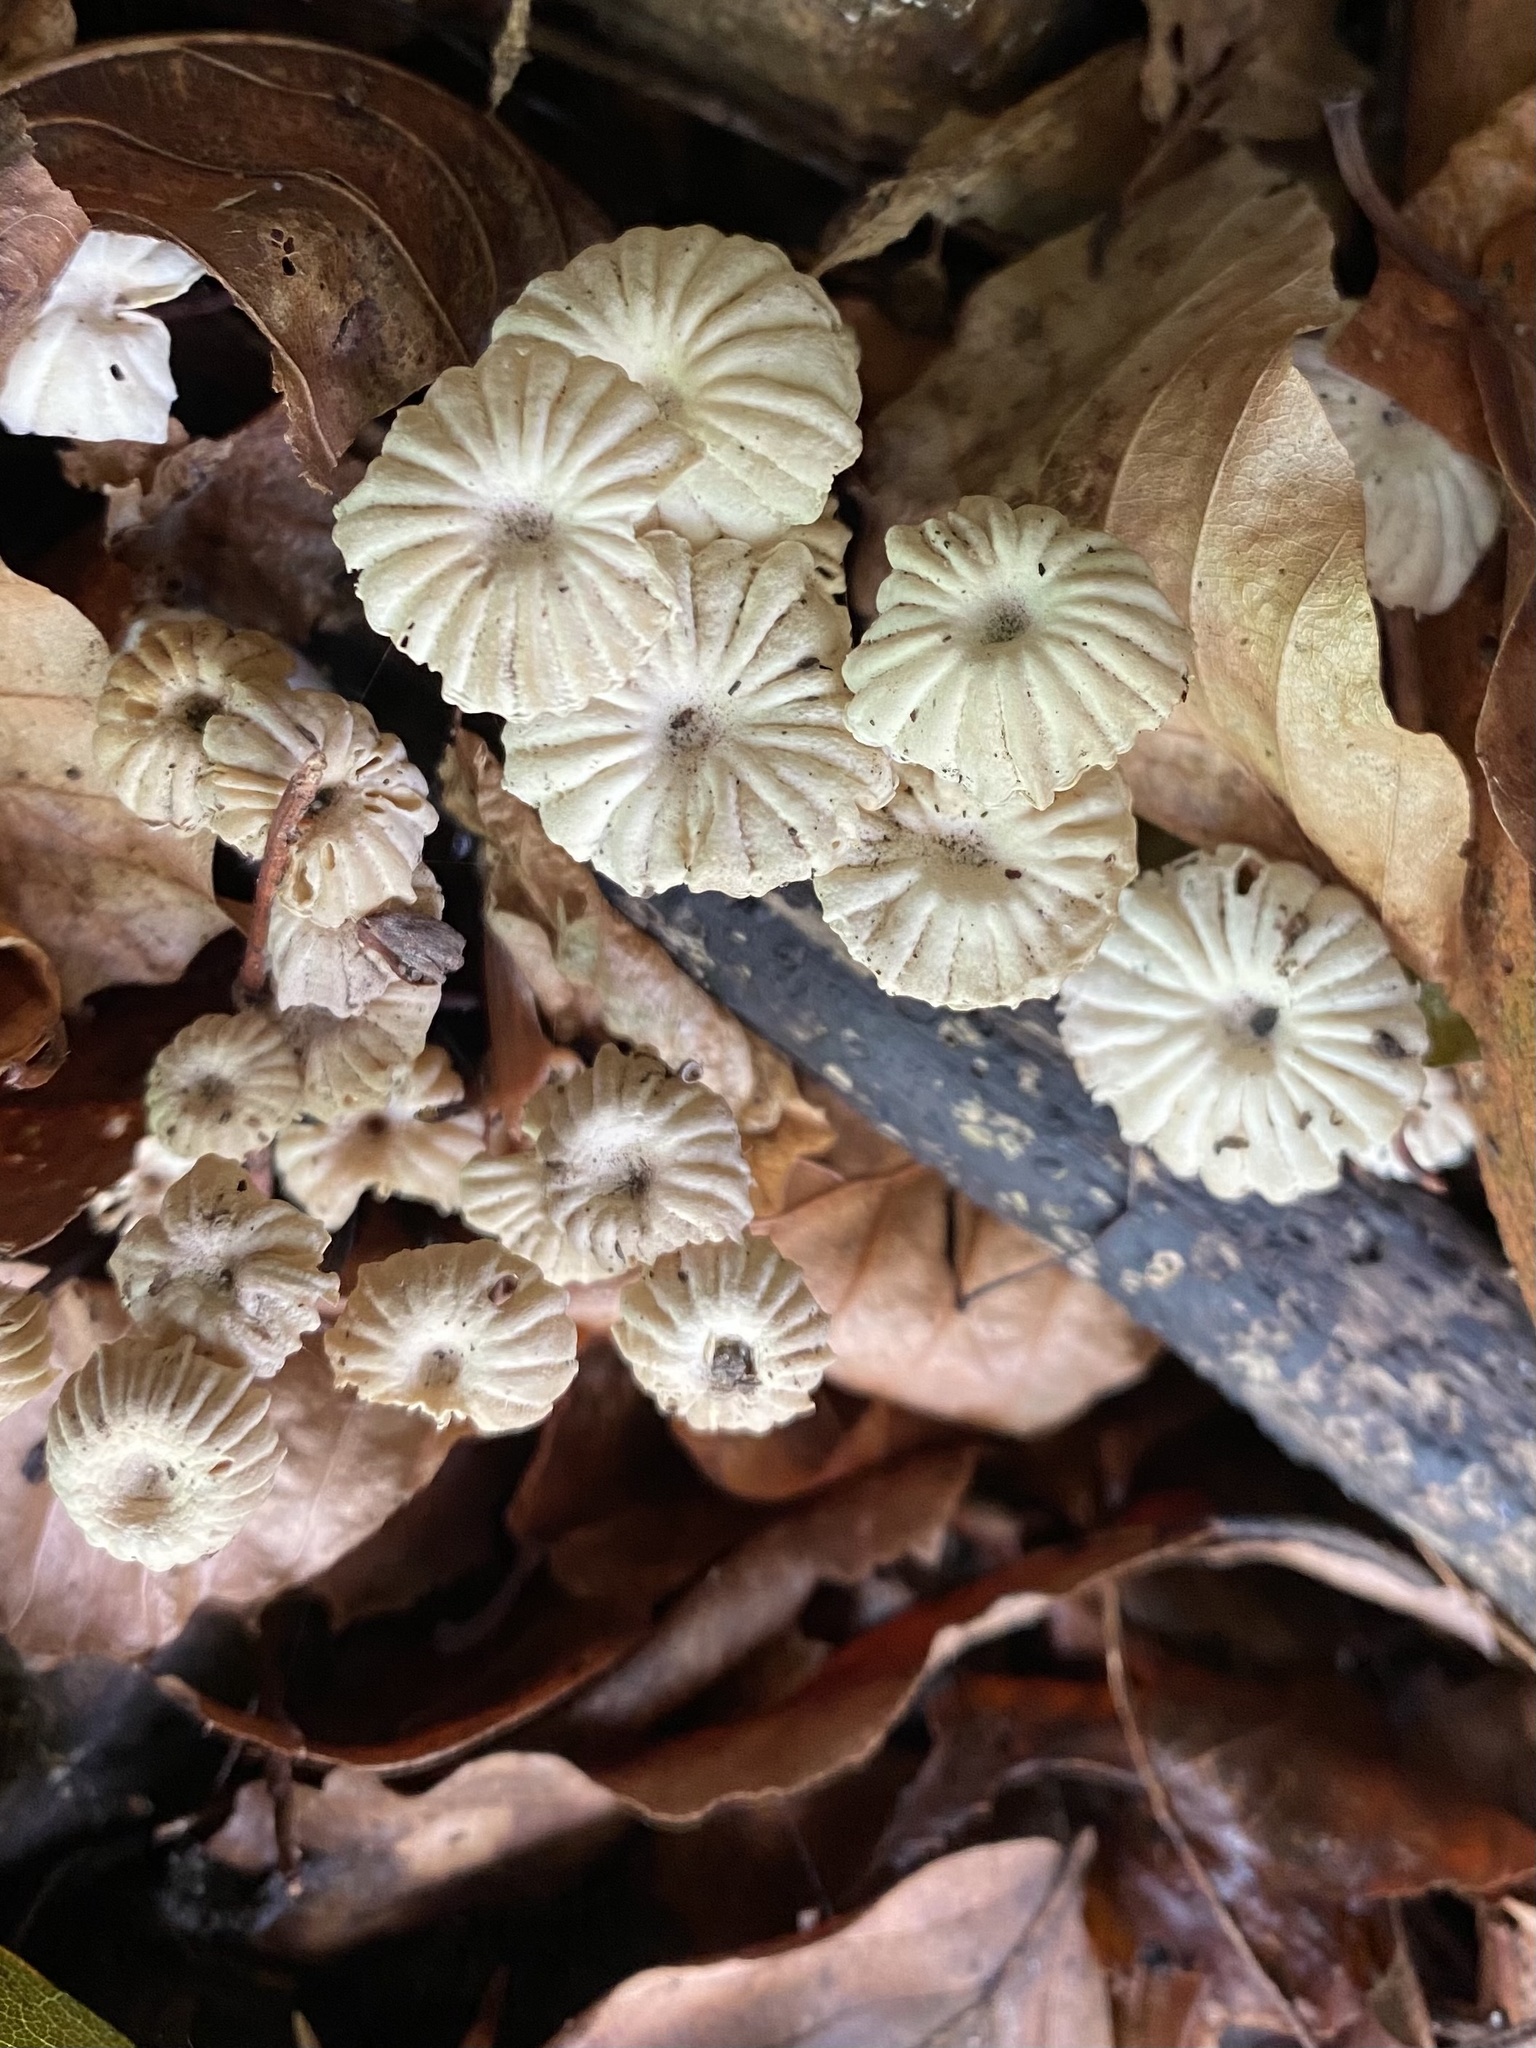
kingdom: Fungi
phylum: Basidiomycota
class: Agaricomycetes
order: Agaricales
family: Marasmiaceae
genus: Marasmius
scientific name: Marasmius rotula
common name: Collared parachute
